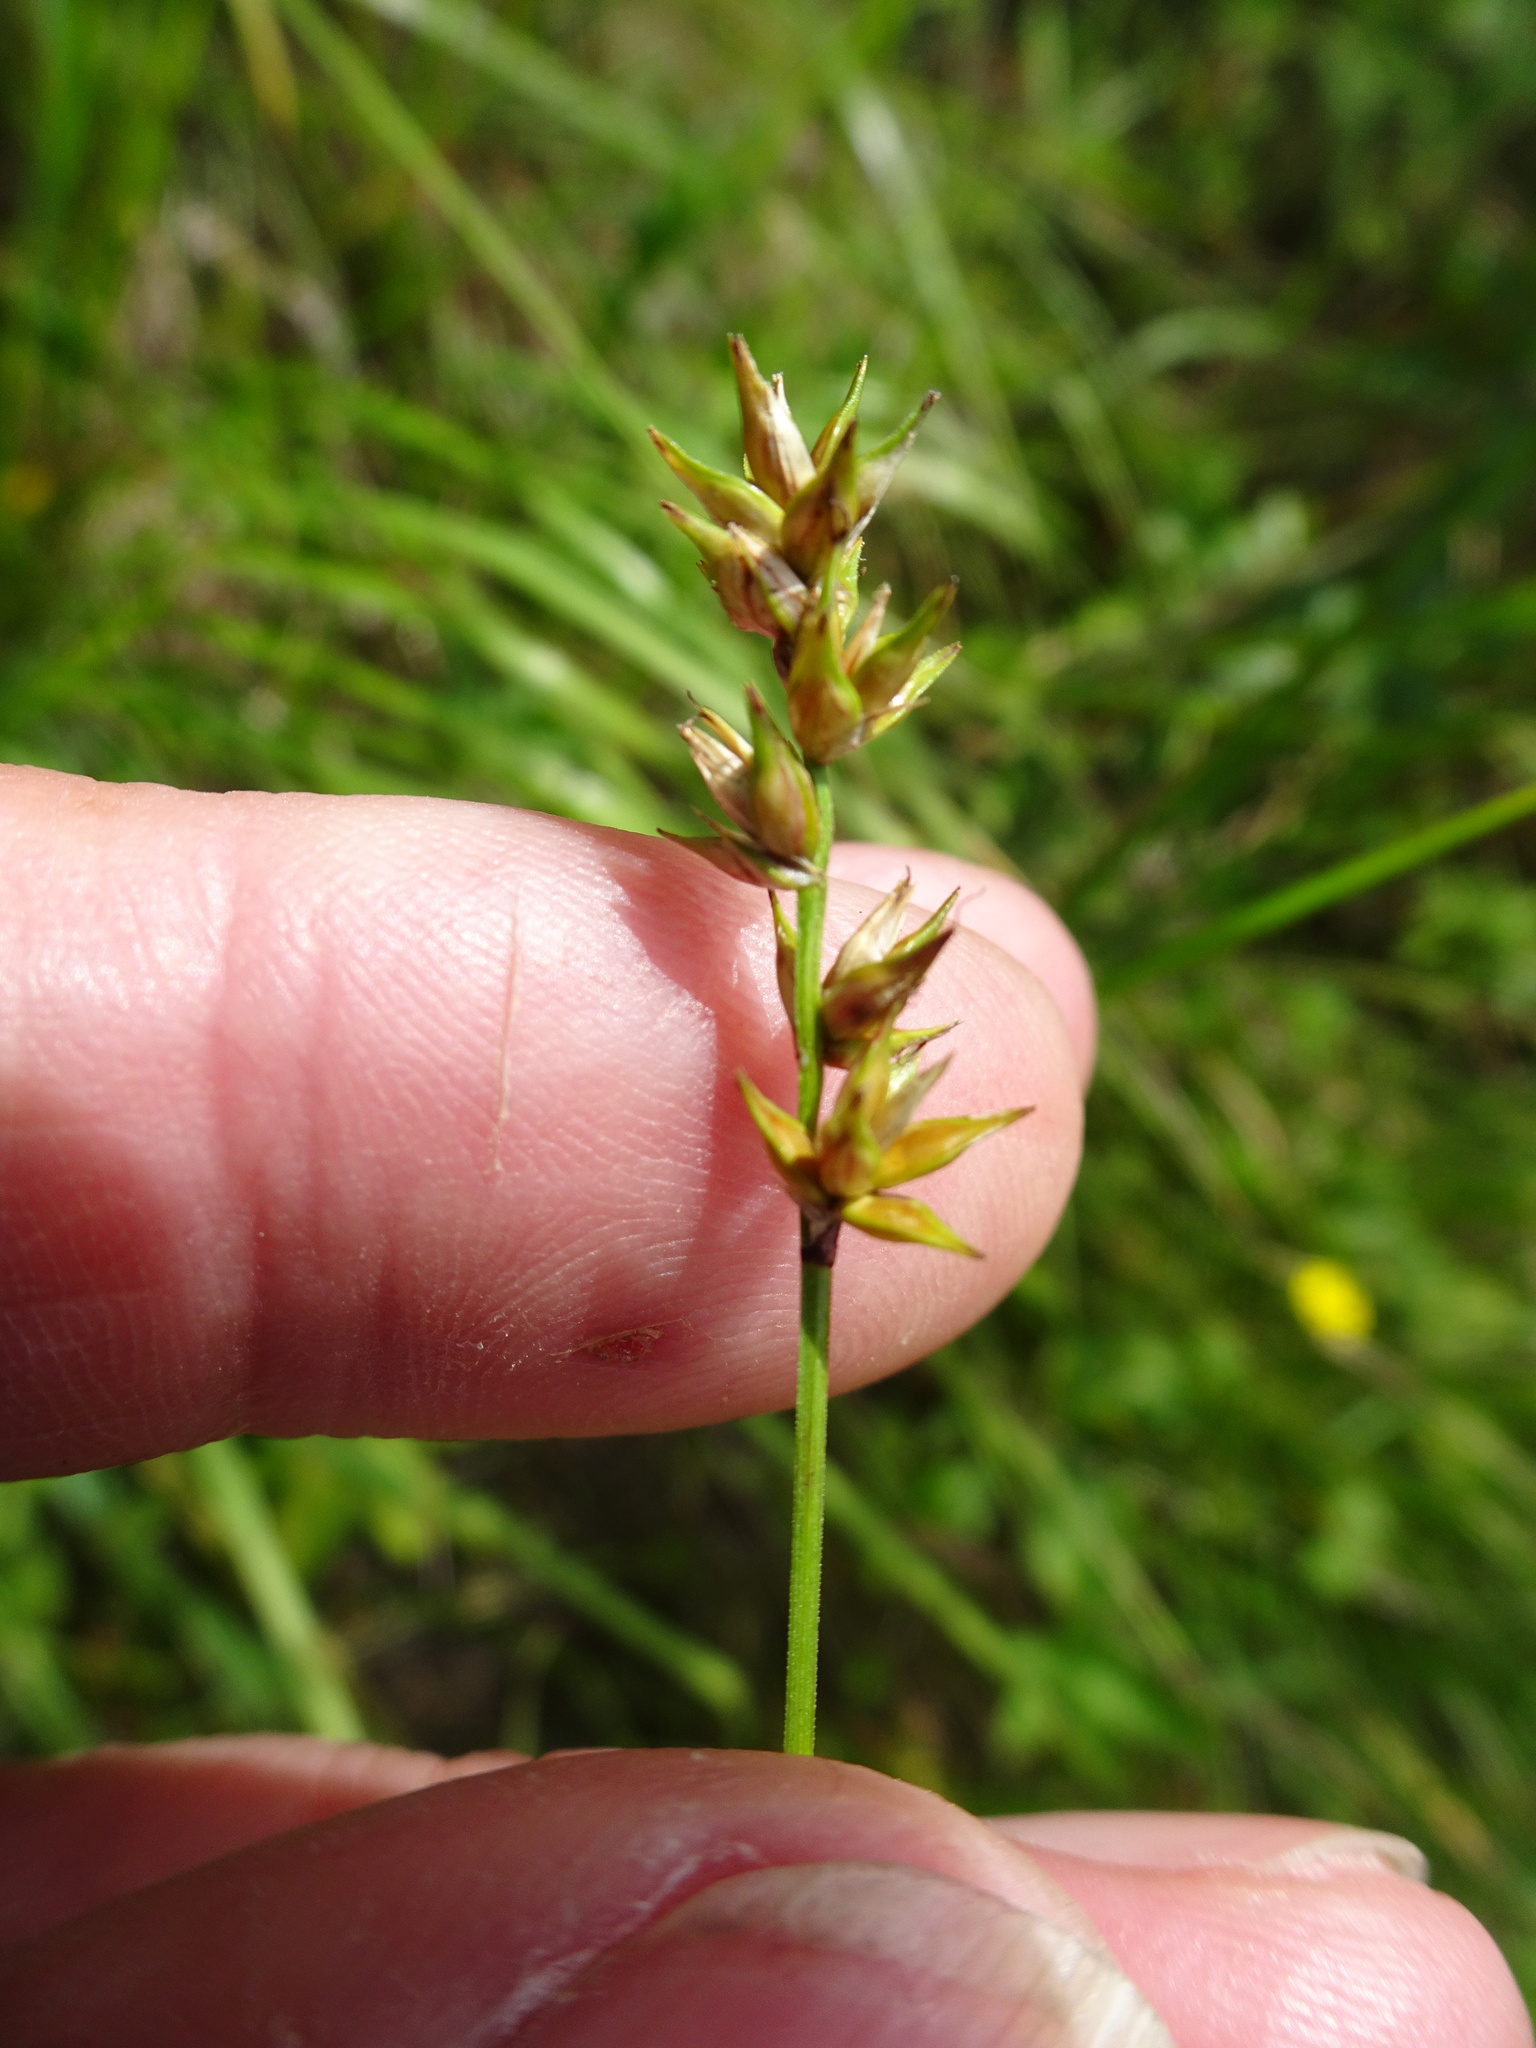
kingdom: Plantae
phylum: Tracheophyta
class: Liliopsida
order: Poales
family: Cyperaceae
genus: Carex
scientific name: Carex spicata
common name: Spiked sedge
